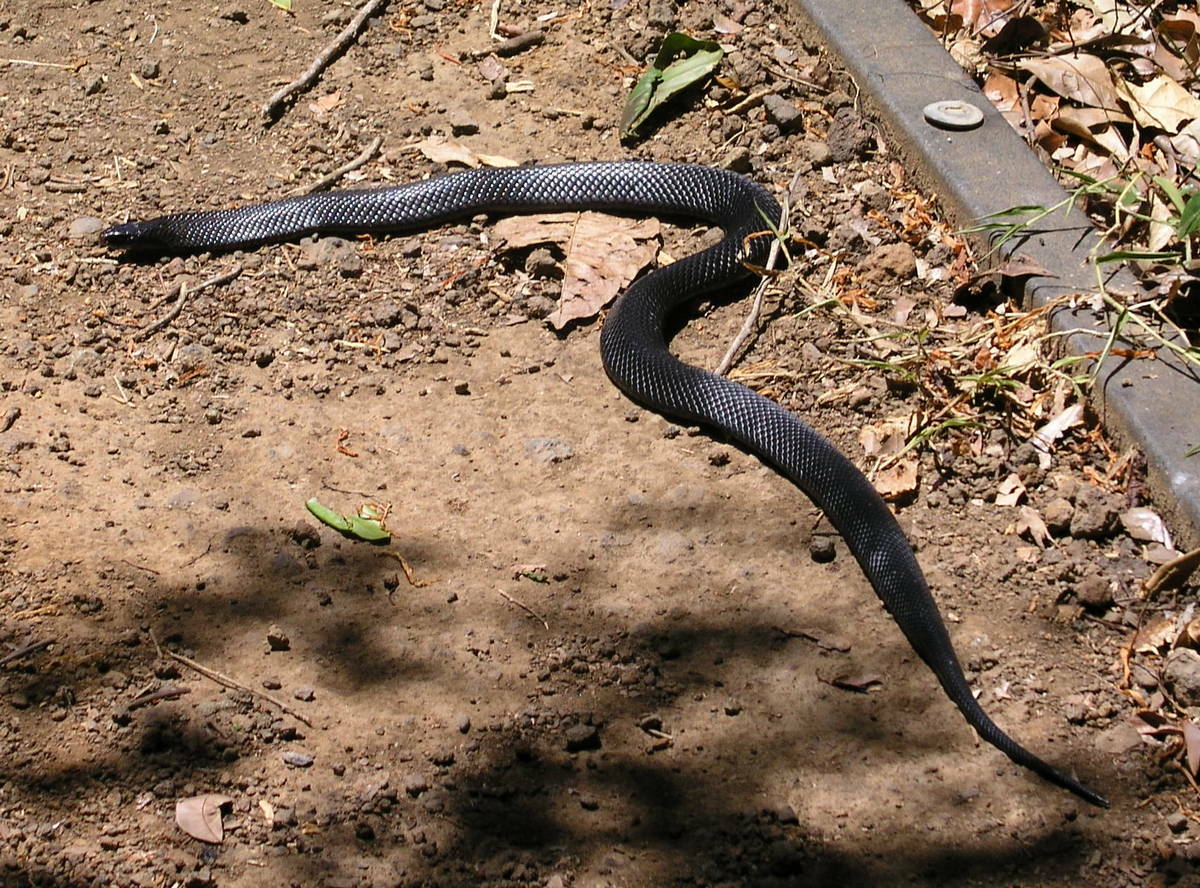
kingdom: Animalia
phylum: Chordata
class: Squamata
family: Elapidae
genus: Pseudechis
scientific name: Pseudechis porphyriacus
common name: Australian black snake
